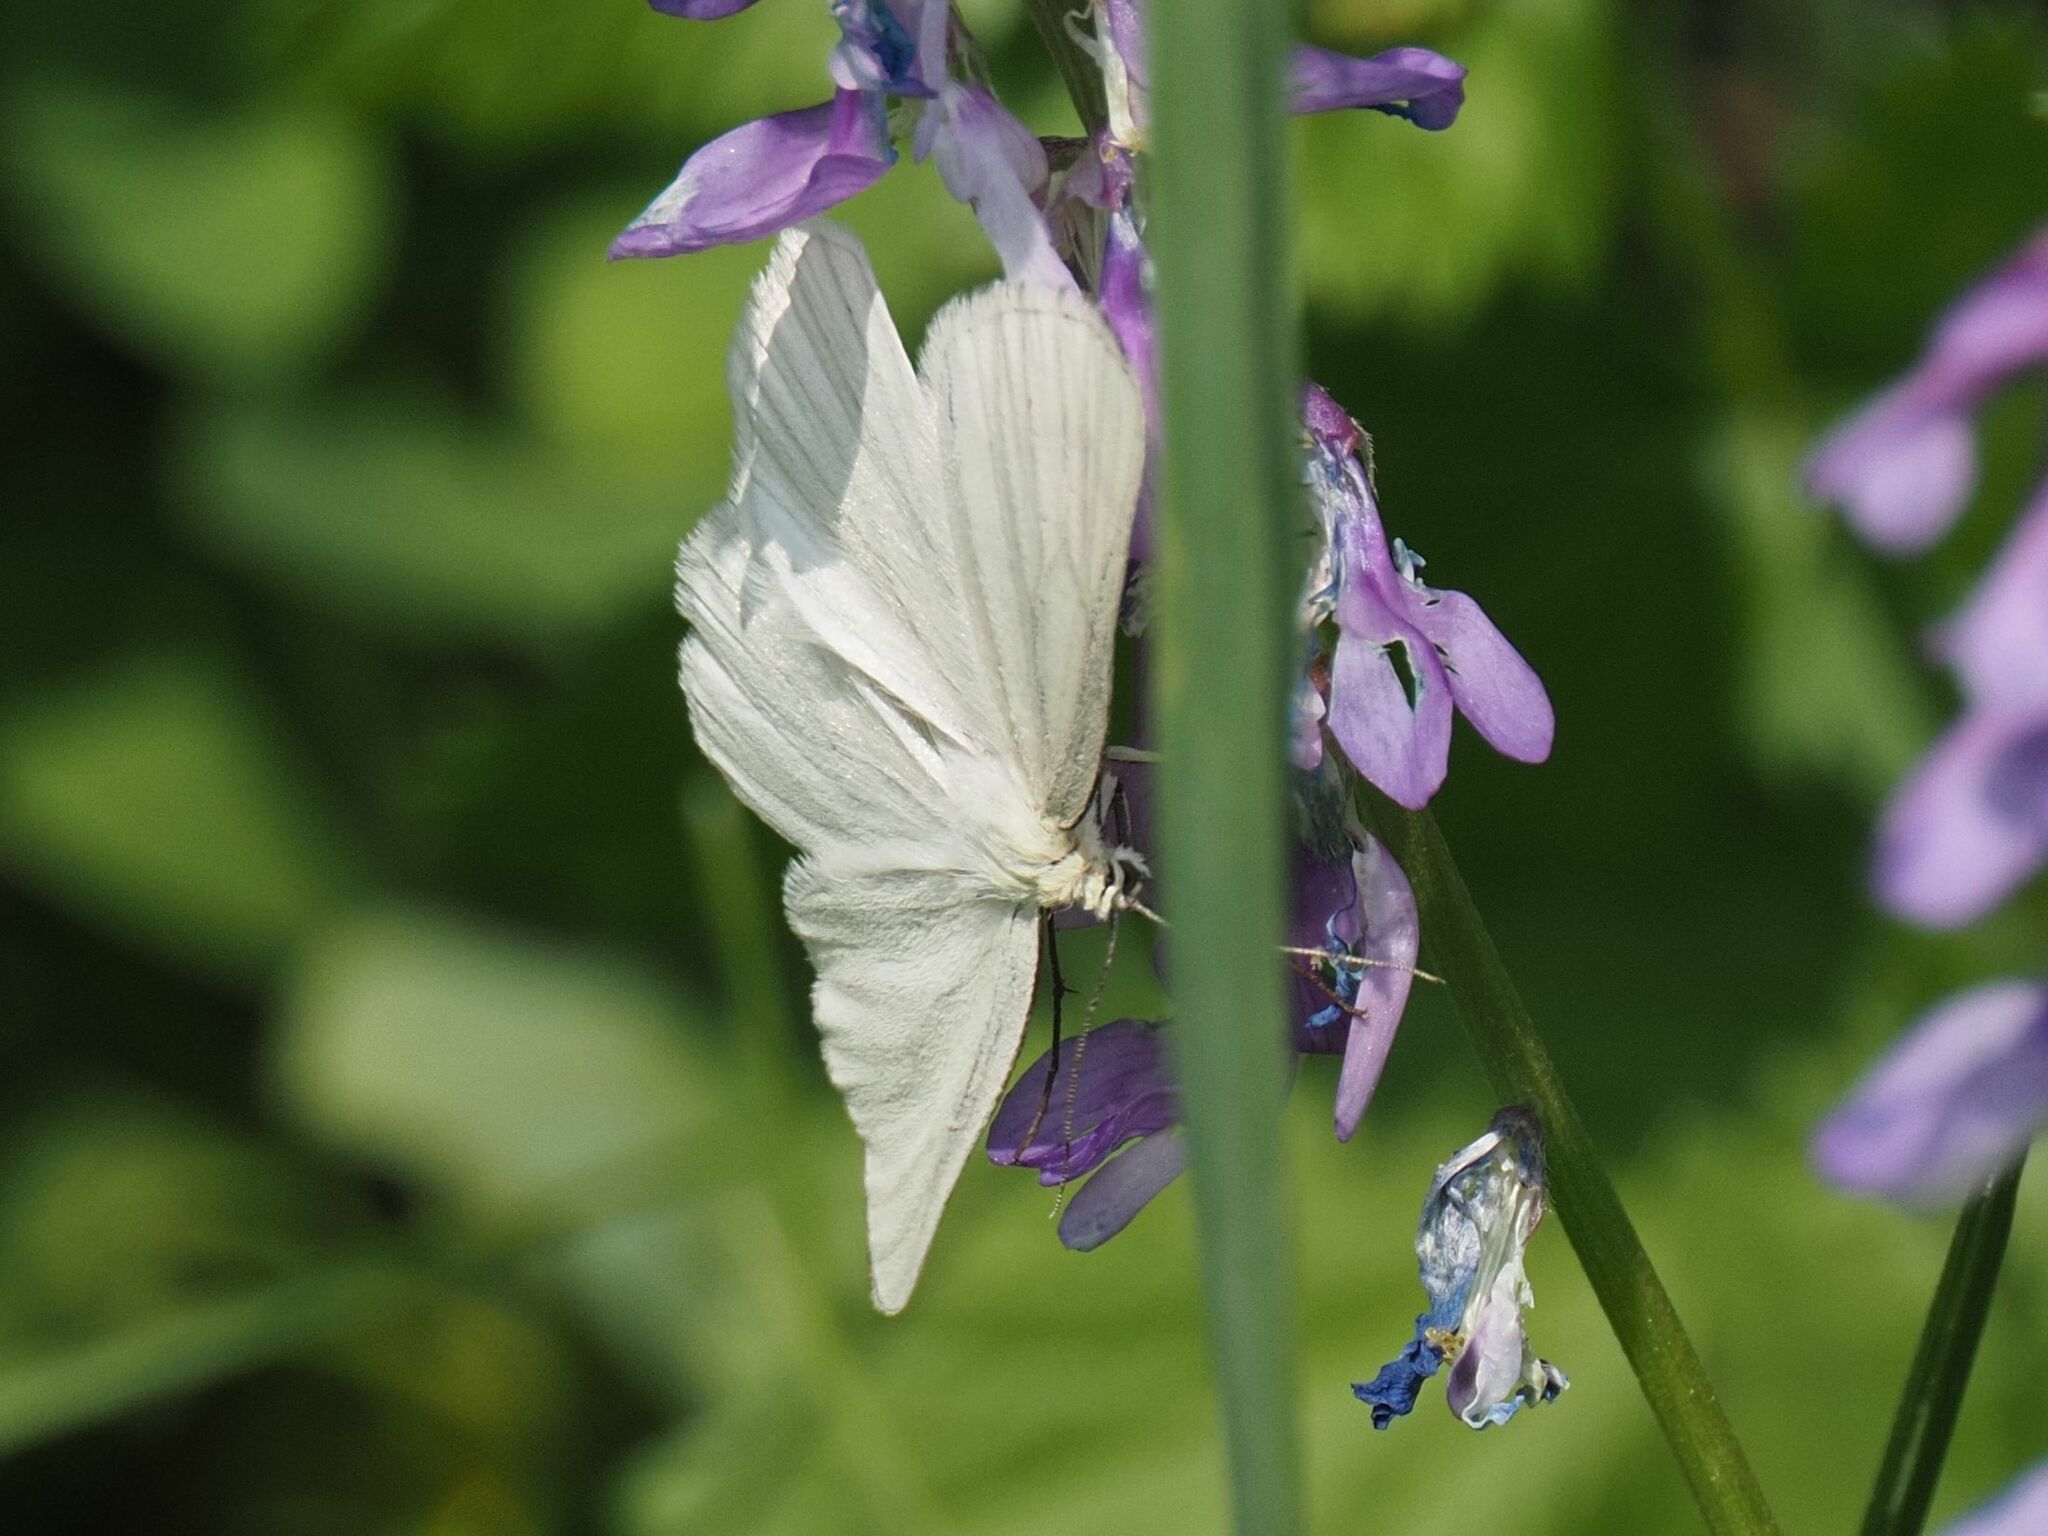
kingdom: Animalia
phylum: Arthropoda
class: Insecta
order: Lepidoptera
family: Geometridae
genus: Siona
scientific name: Siona lineata
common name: Black-veined moth
